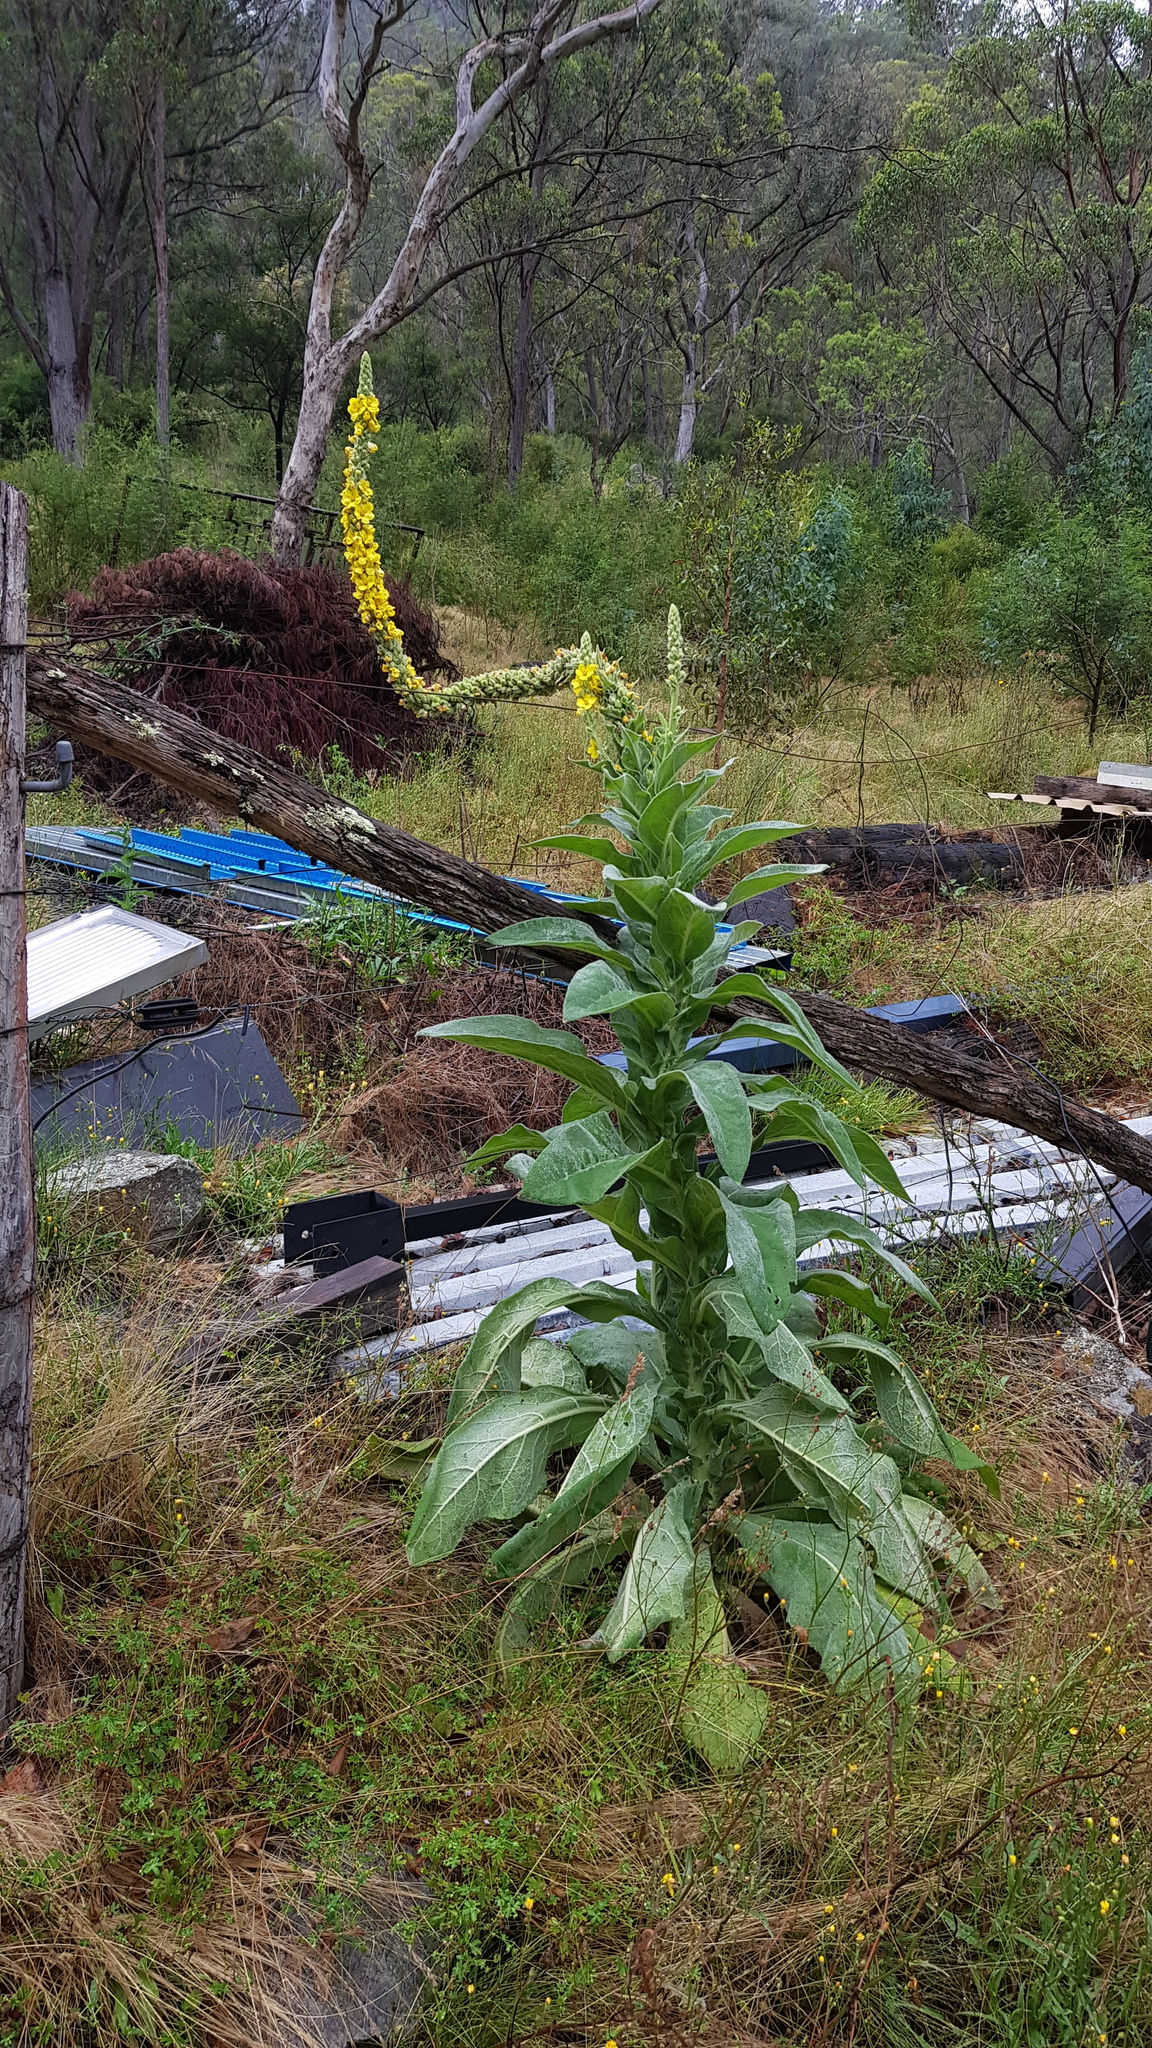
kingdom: Plantae
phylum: Tracheophyta
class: Magnoliopsida
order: Lamiales
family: Scrophulariaceae
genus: Verbascum
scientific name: Verbascum thapsus
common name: Common mullein
